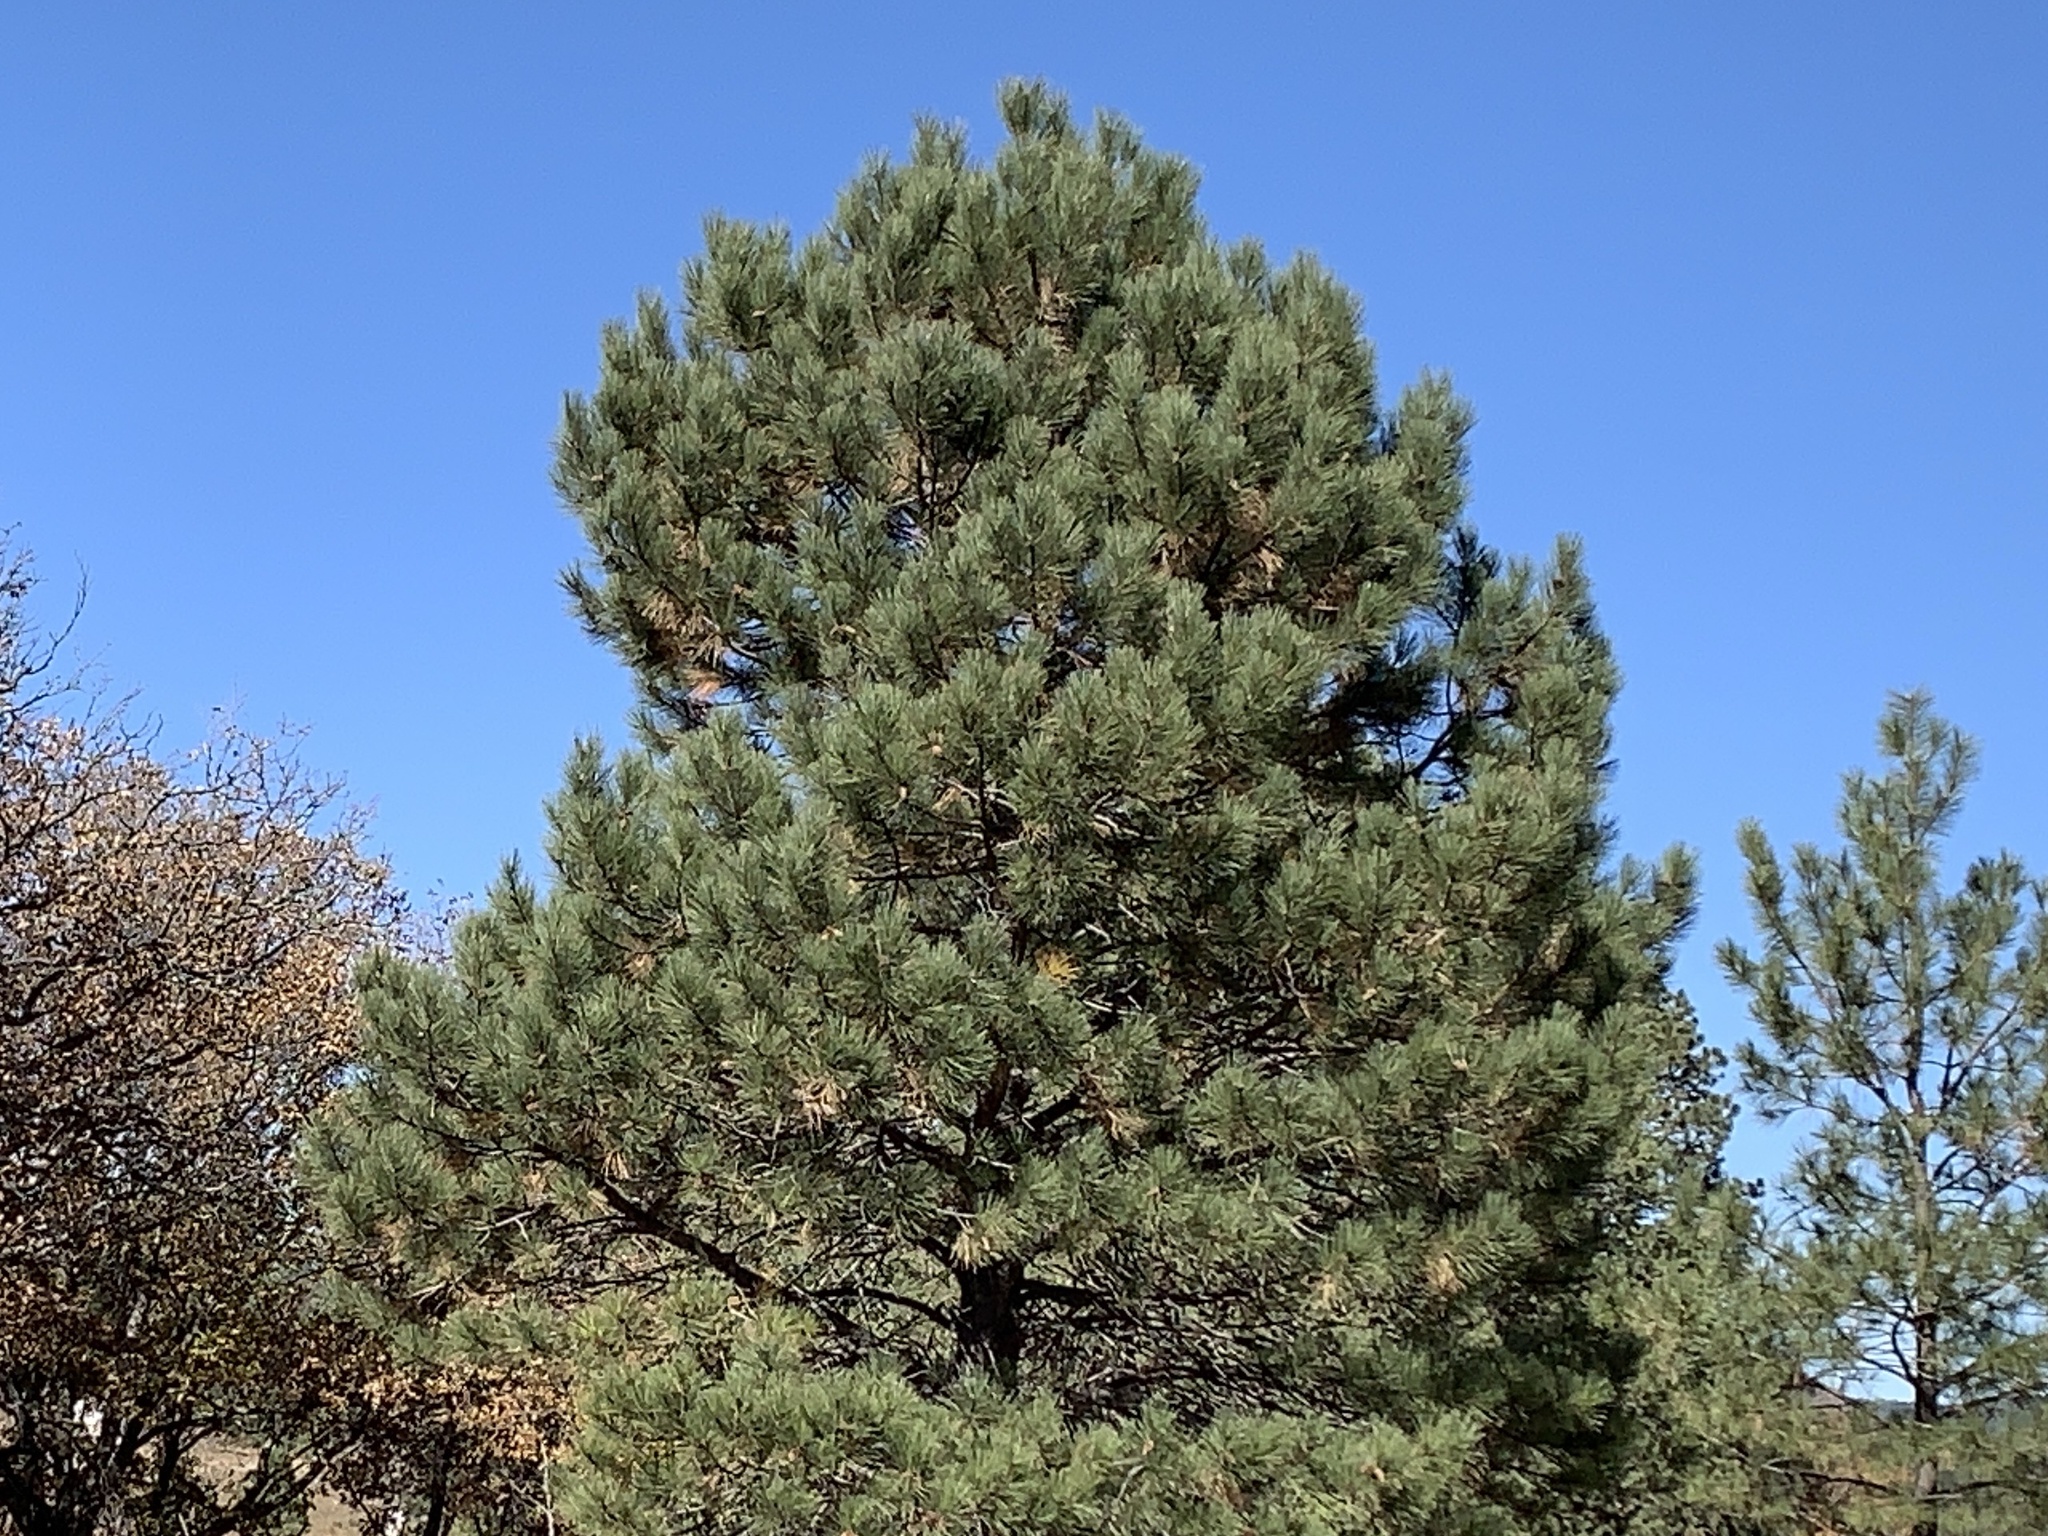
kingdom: Plantae
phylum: Tracheophyta
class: Pinopsida
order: Pinales
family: Pinaceae
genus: Pinus
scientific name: Pinus ponderosa
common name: Western yellow-pine
